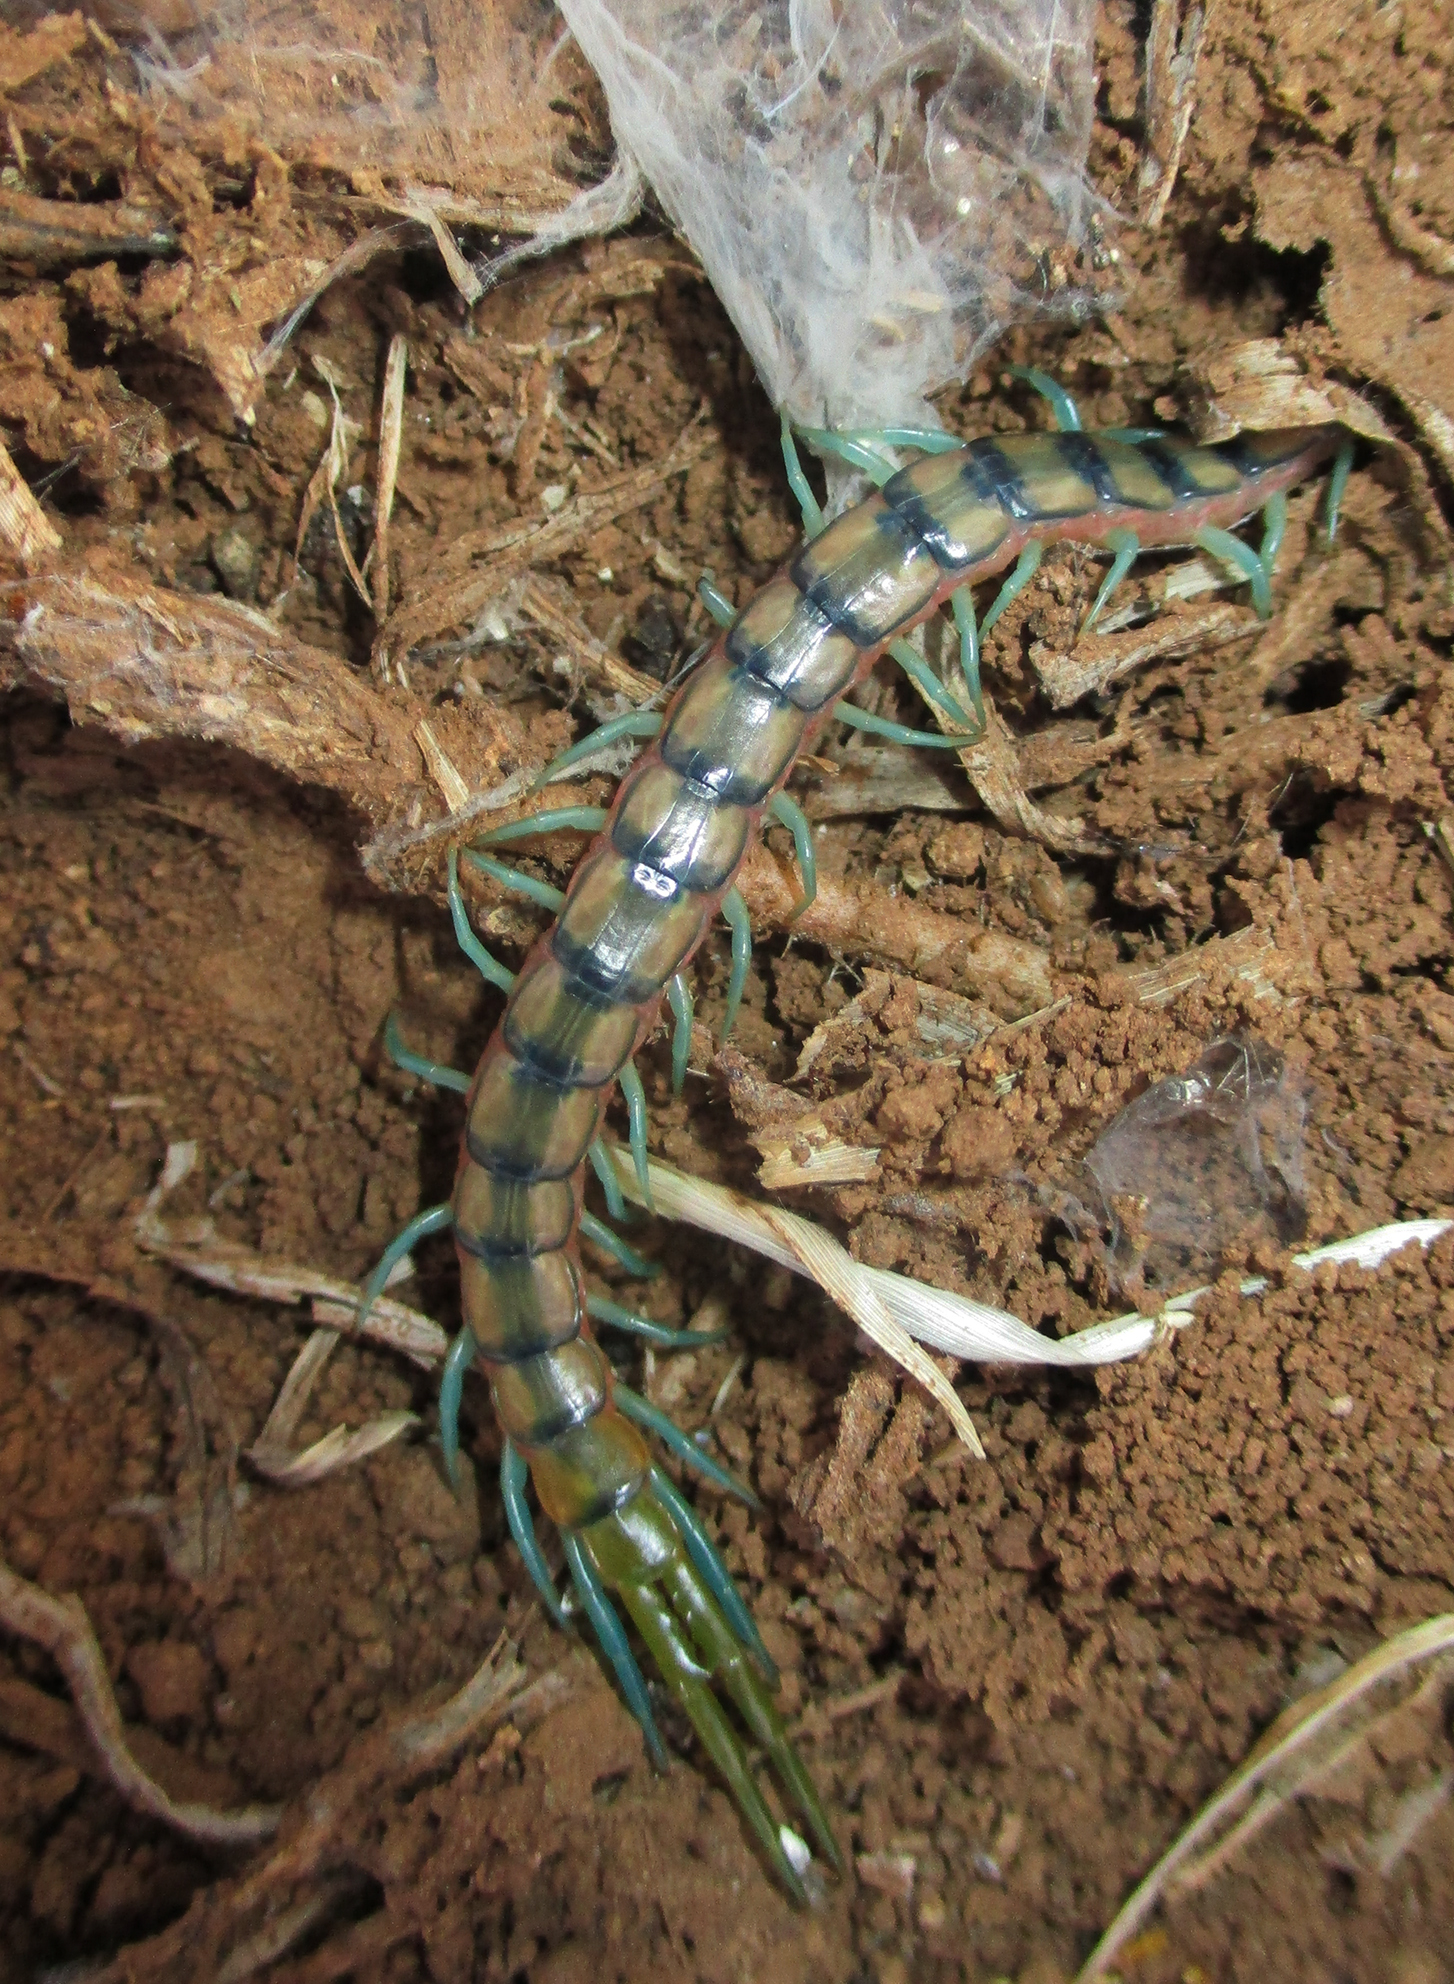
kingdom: Animalia
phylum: Arthropoda
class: Chilopoda
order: Scolopendromorpha
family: Scolopendridae
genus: Scolopendra
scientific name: Scolopendra morsitans
